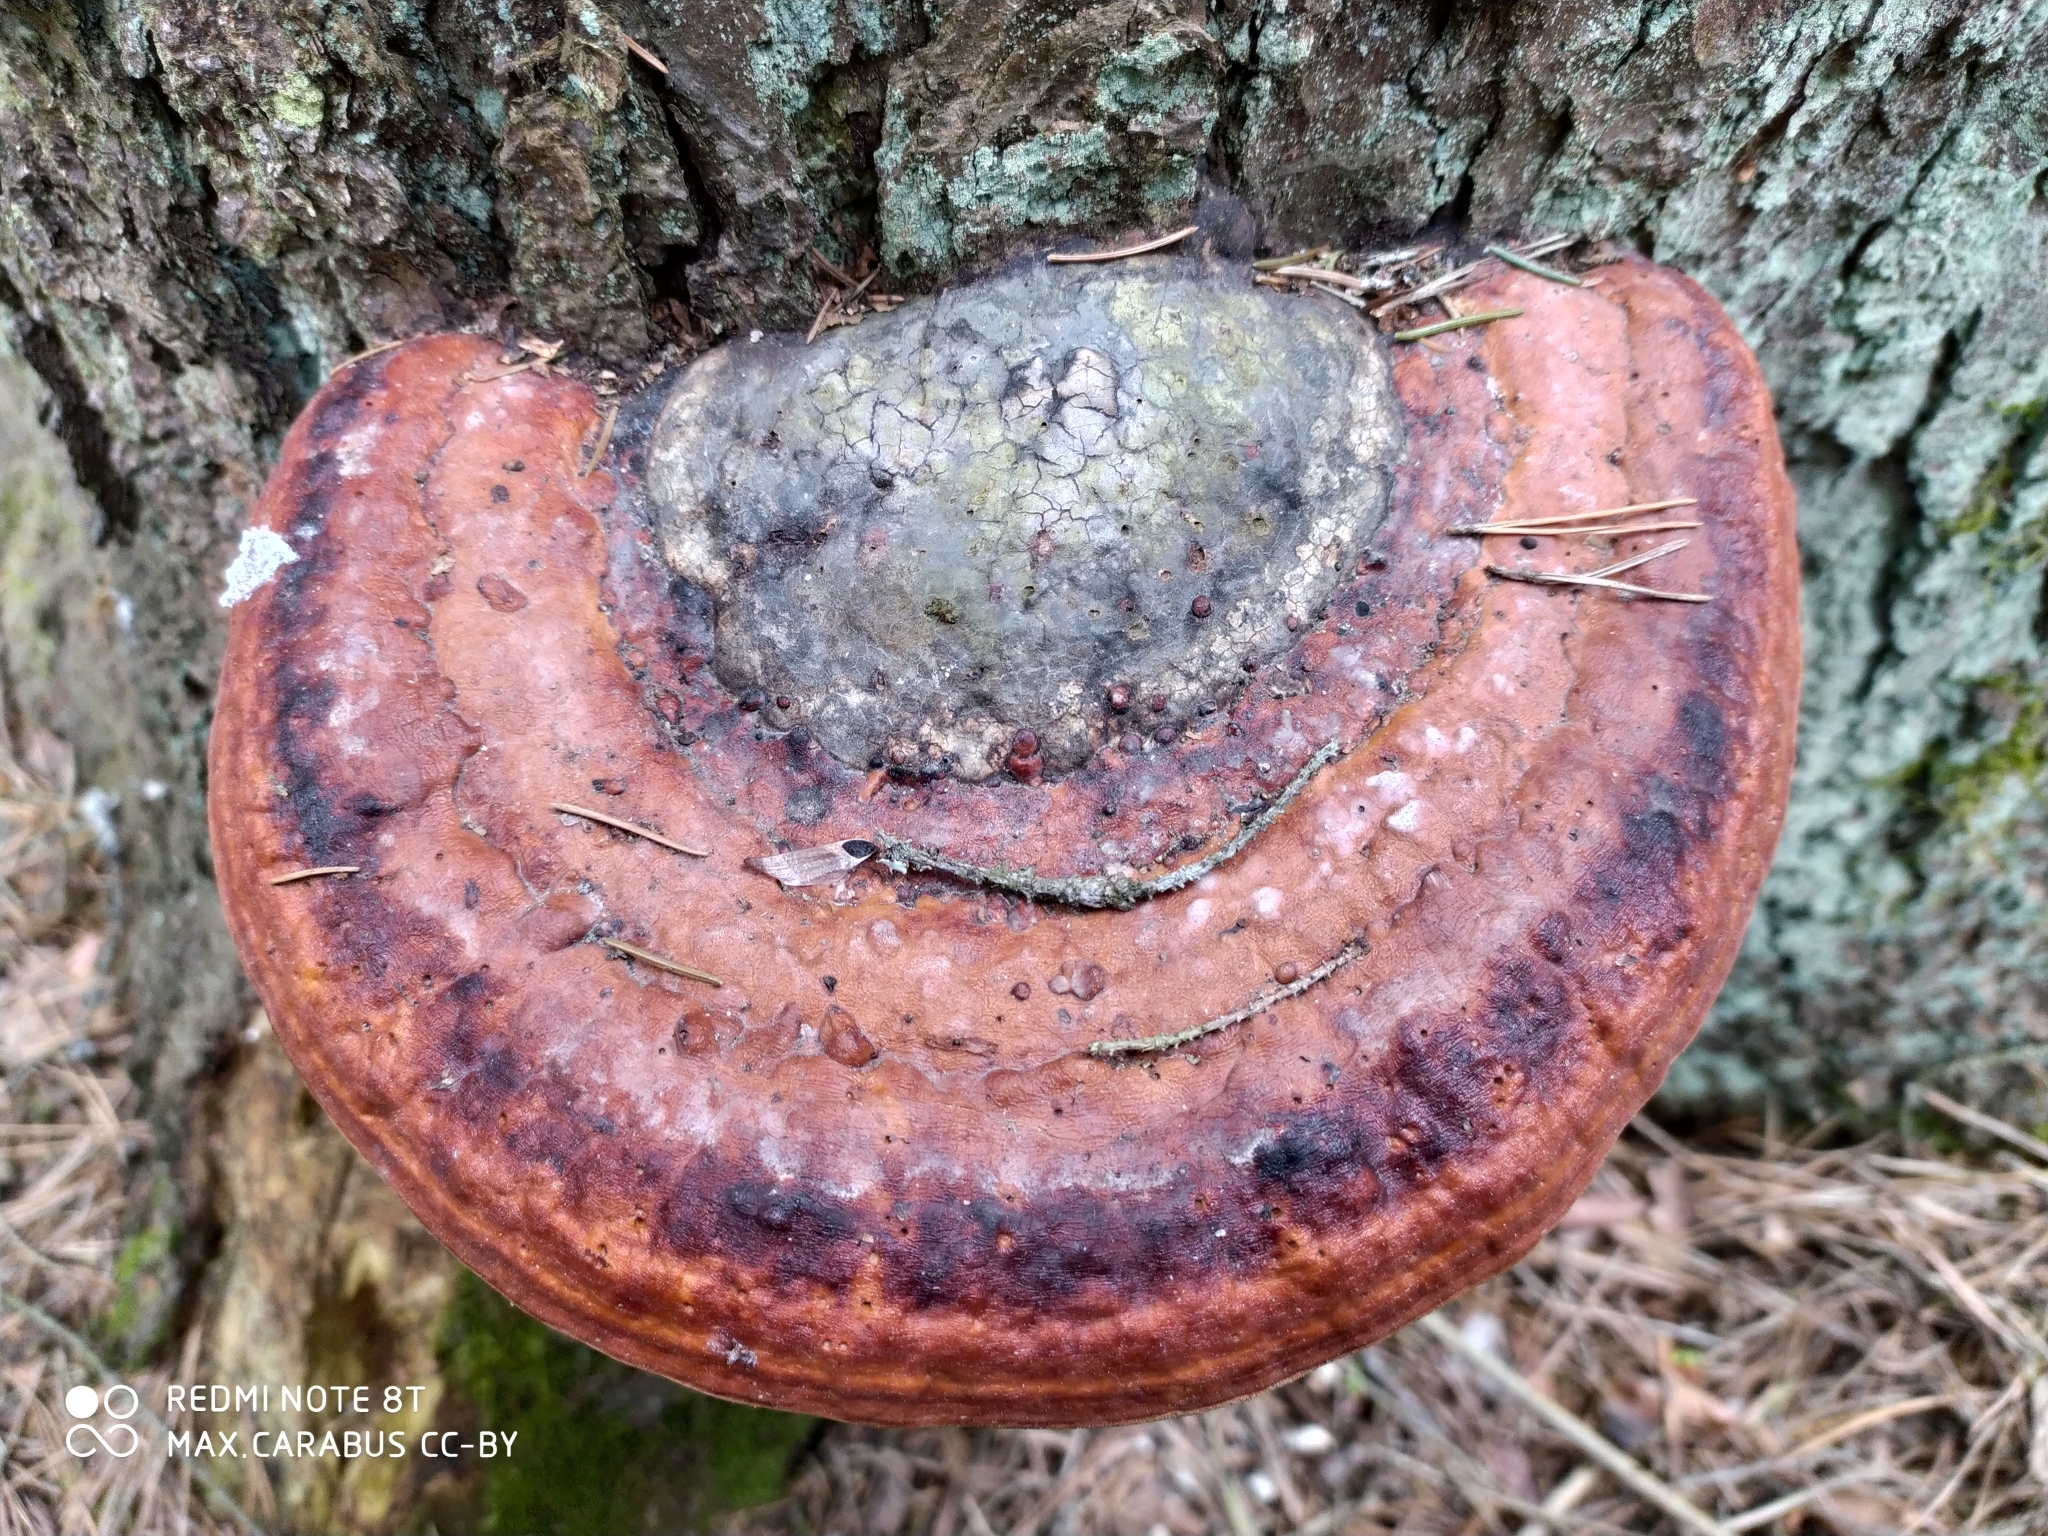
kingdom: Fungi
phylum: Basidiomycota
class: Agaricomycetes
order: Polyporales
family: Fomitopsidaceae
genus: Fomitopsis
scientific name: Fomitopsis pinicola
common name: Red-belted bracket
